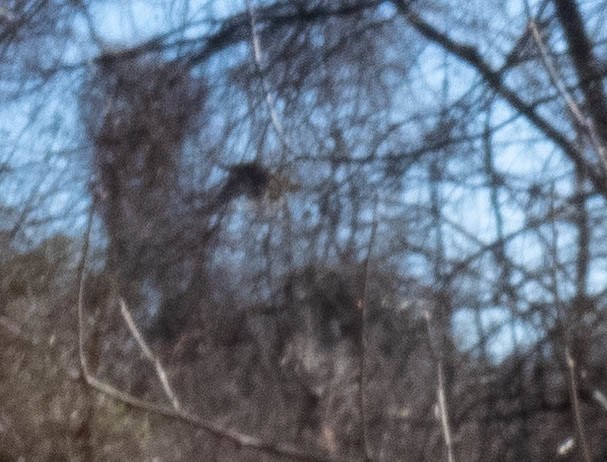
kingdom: Animalia
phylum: Chordata
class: Aves
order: Galliformes
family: Phasianidae
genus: Meleagris
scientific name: Meleagris gallopavo
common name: Wild turkey
